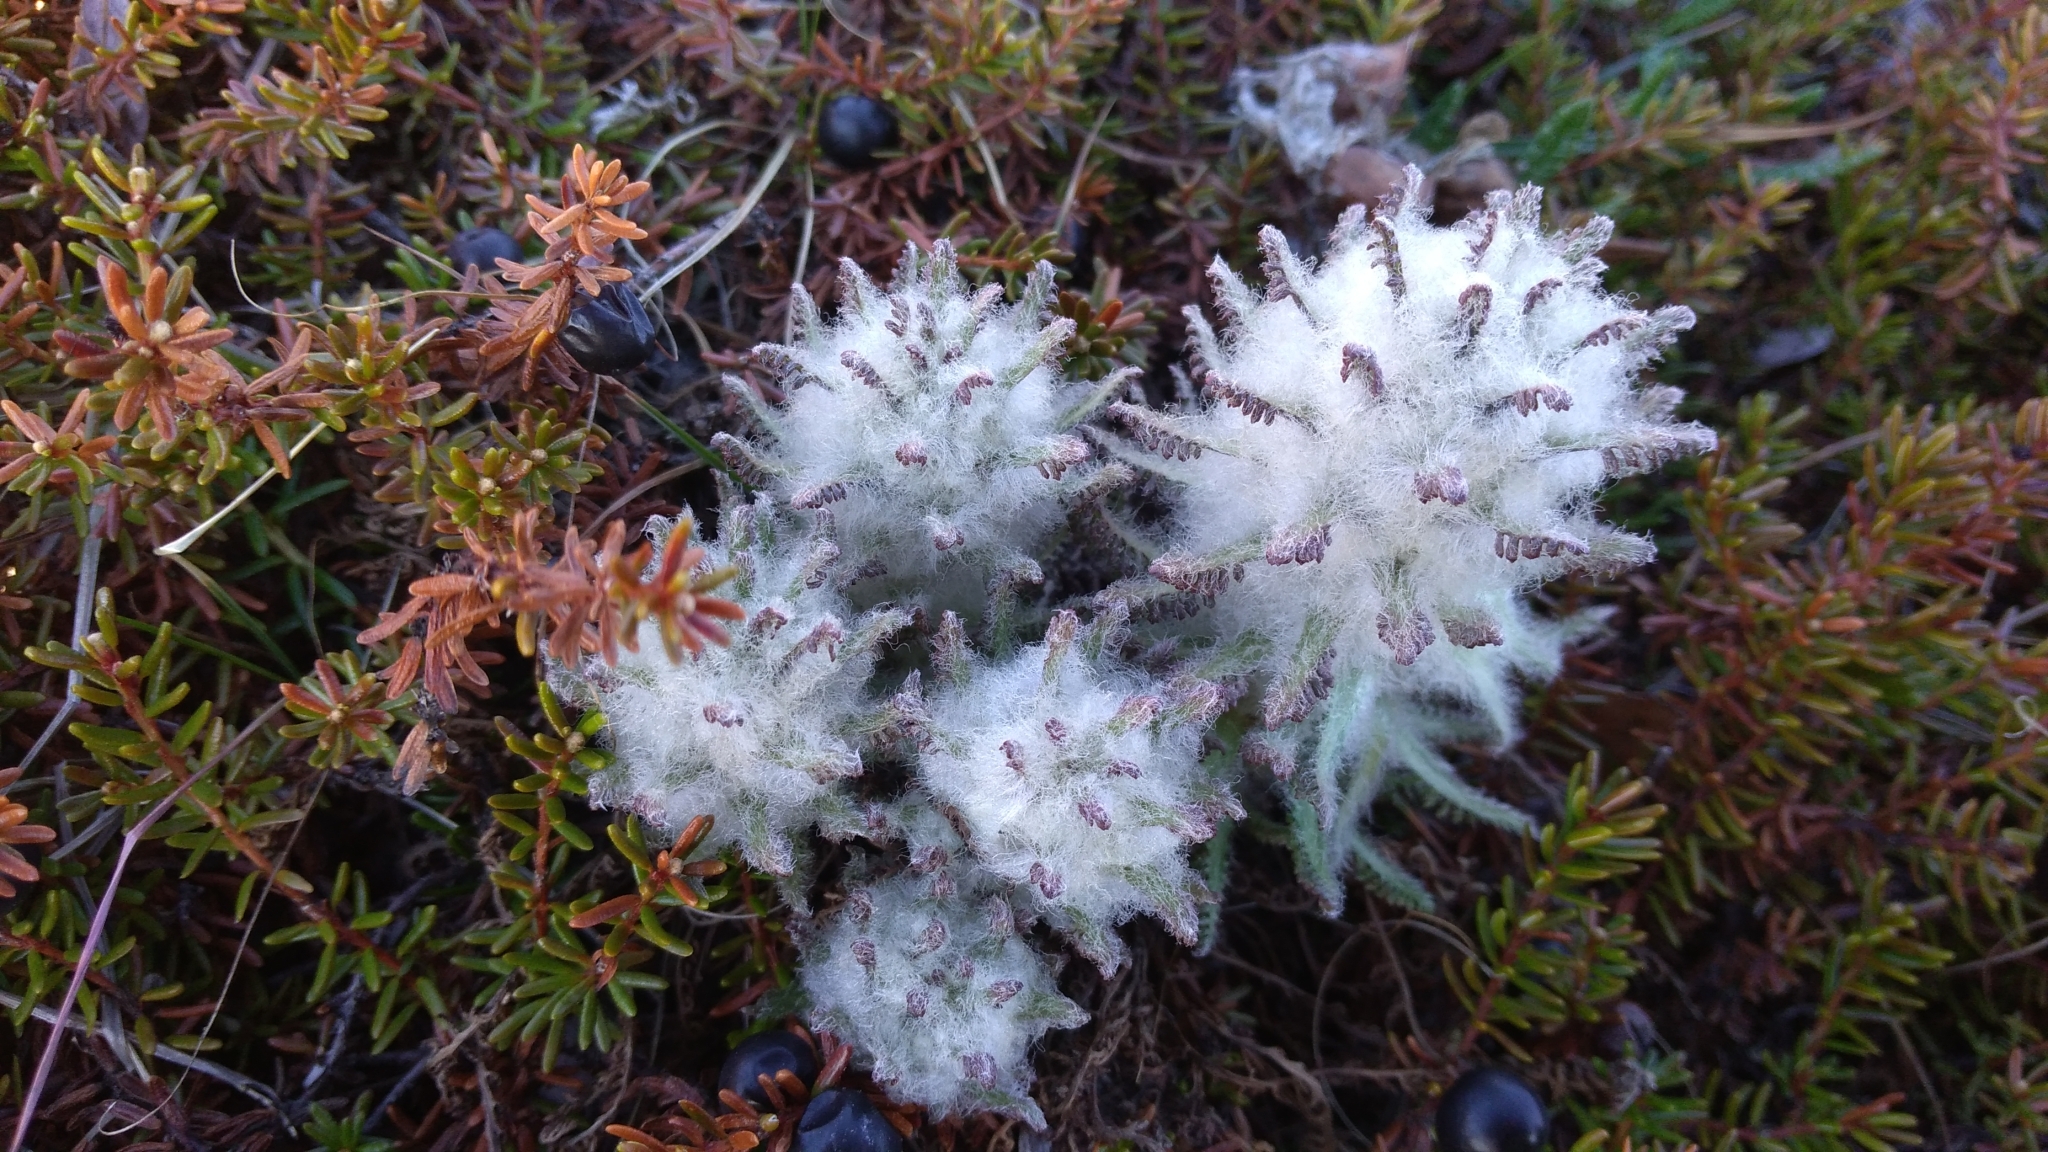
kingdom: Plantae
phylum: Tracheophyta
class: Magnoliopsida
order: Lamiales
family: Orobanchaceae
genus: Pedicularis
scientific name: Pedicularis alopecuroides
